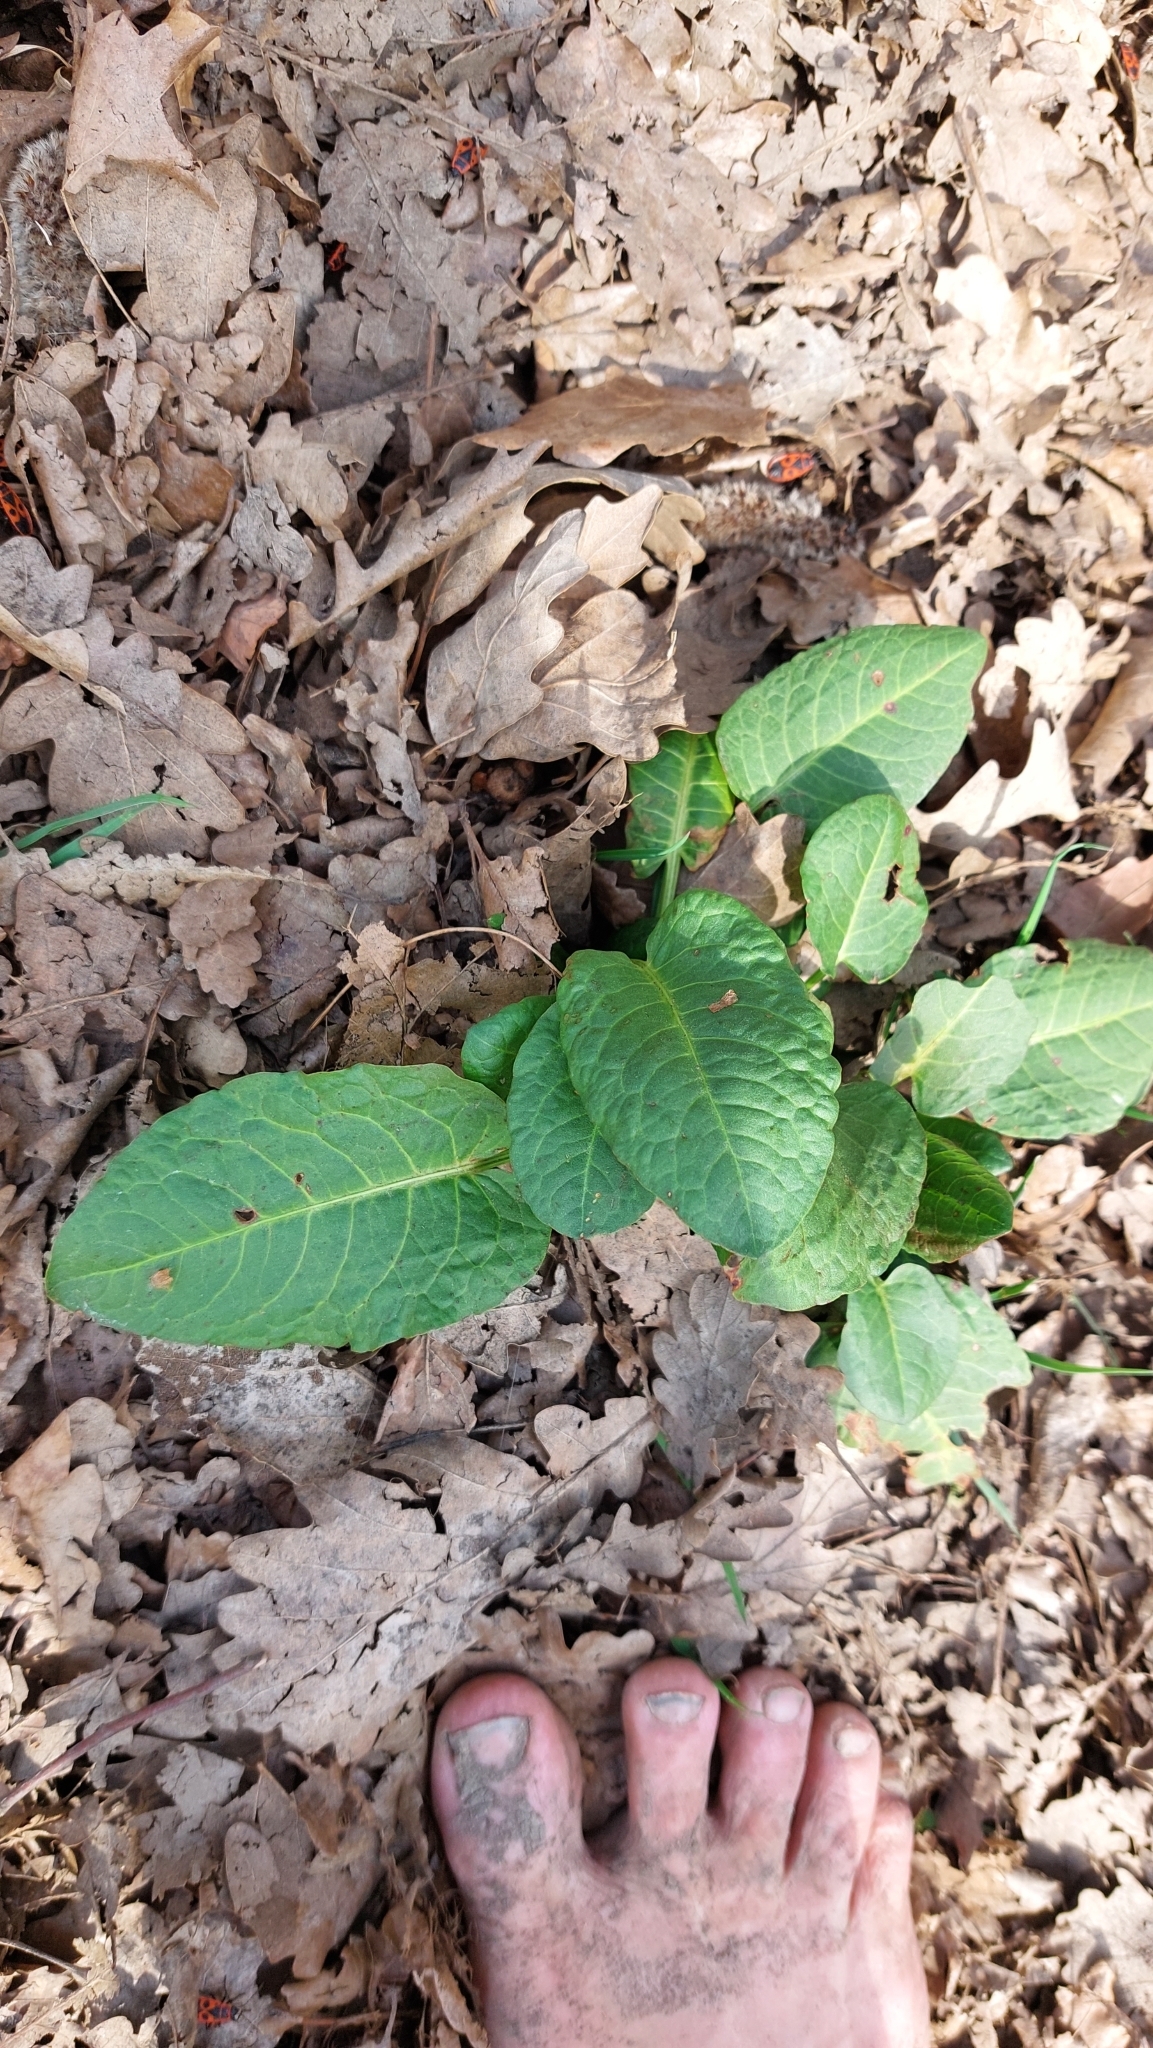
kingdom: Plantae
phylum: Tracheophyta
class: Magnoliopsida
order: Caryophyllales
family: Polygonaceae
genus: Rumex
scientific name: Rumex obtusifolius
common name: Bitter dock
